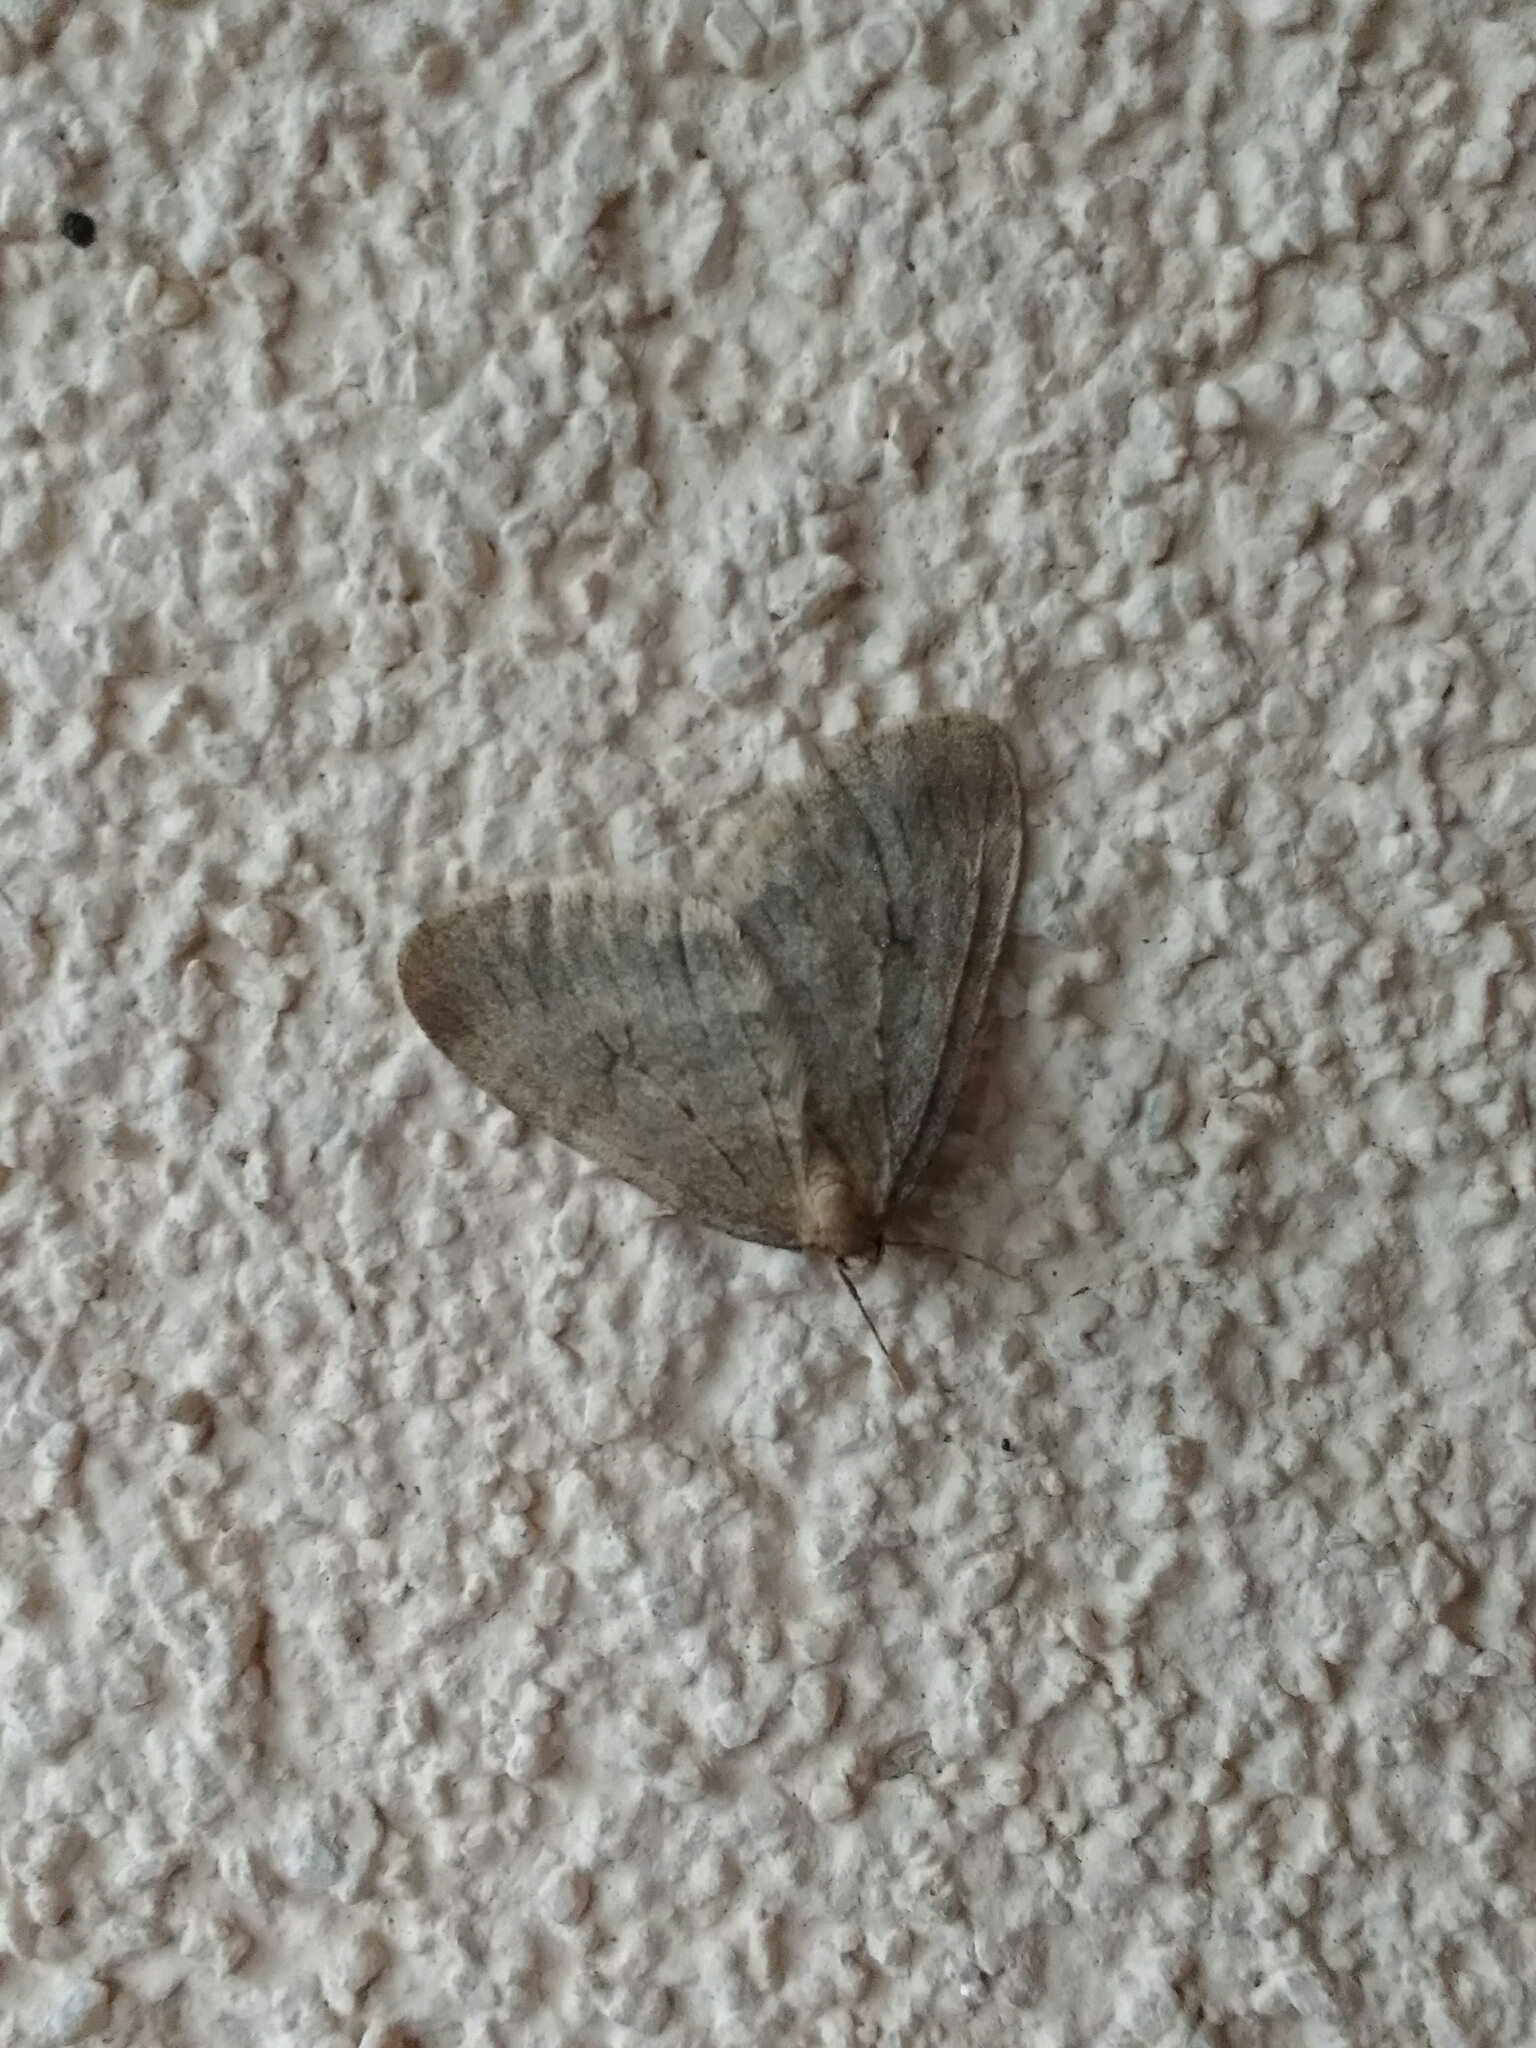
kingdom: Animalia
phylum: Arthropoda
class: Insecta
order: Lepidoptera
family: Geometridae
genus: Operophtera
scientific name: Operophtera brumata
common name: Winter moth
